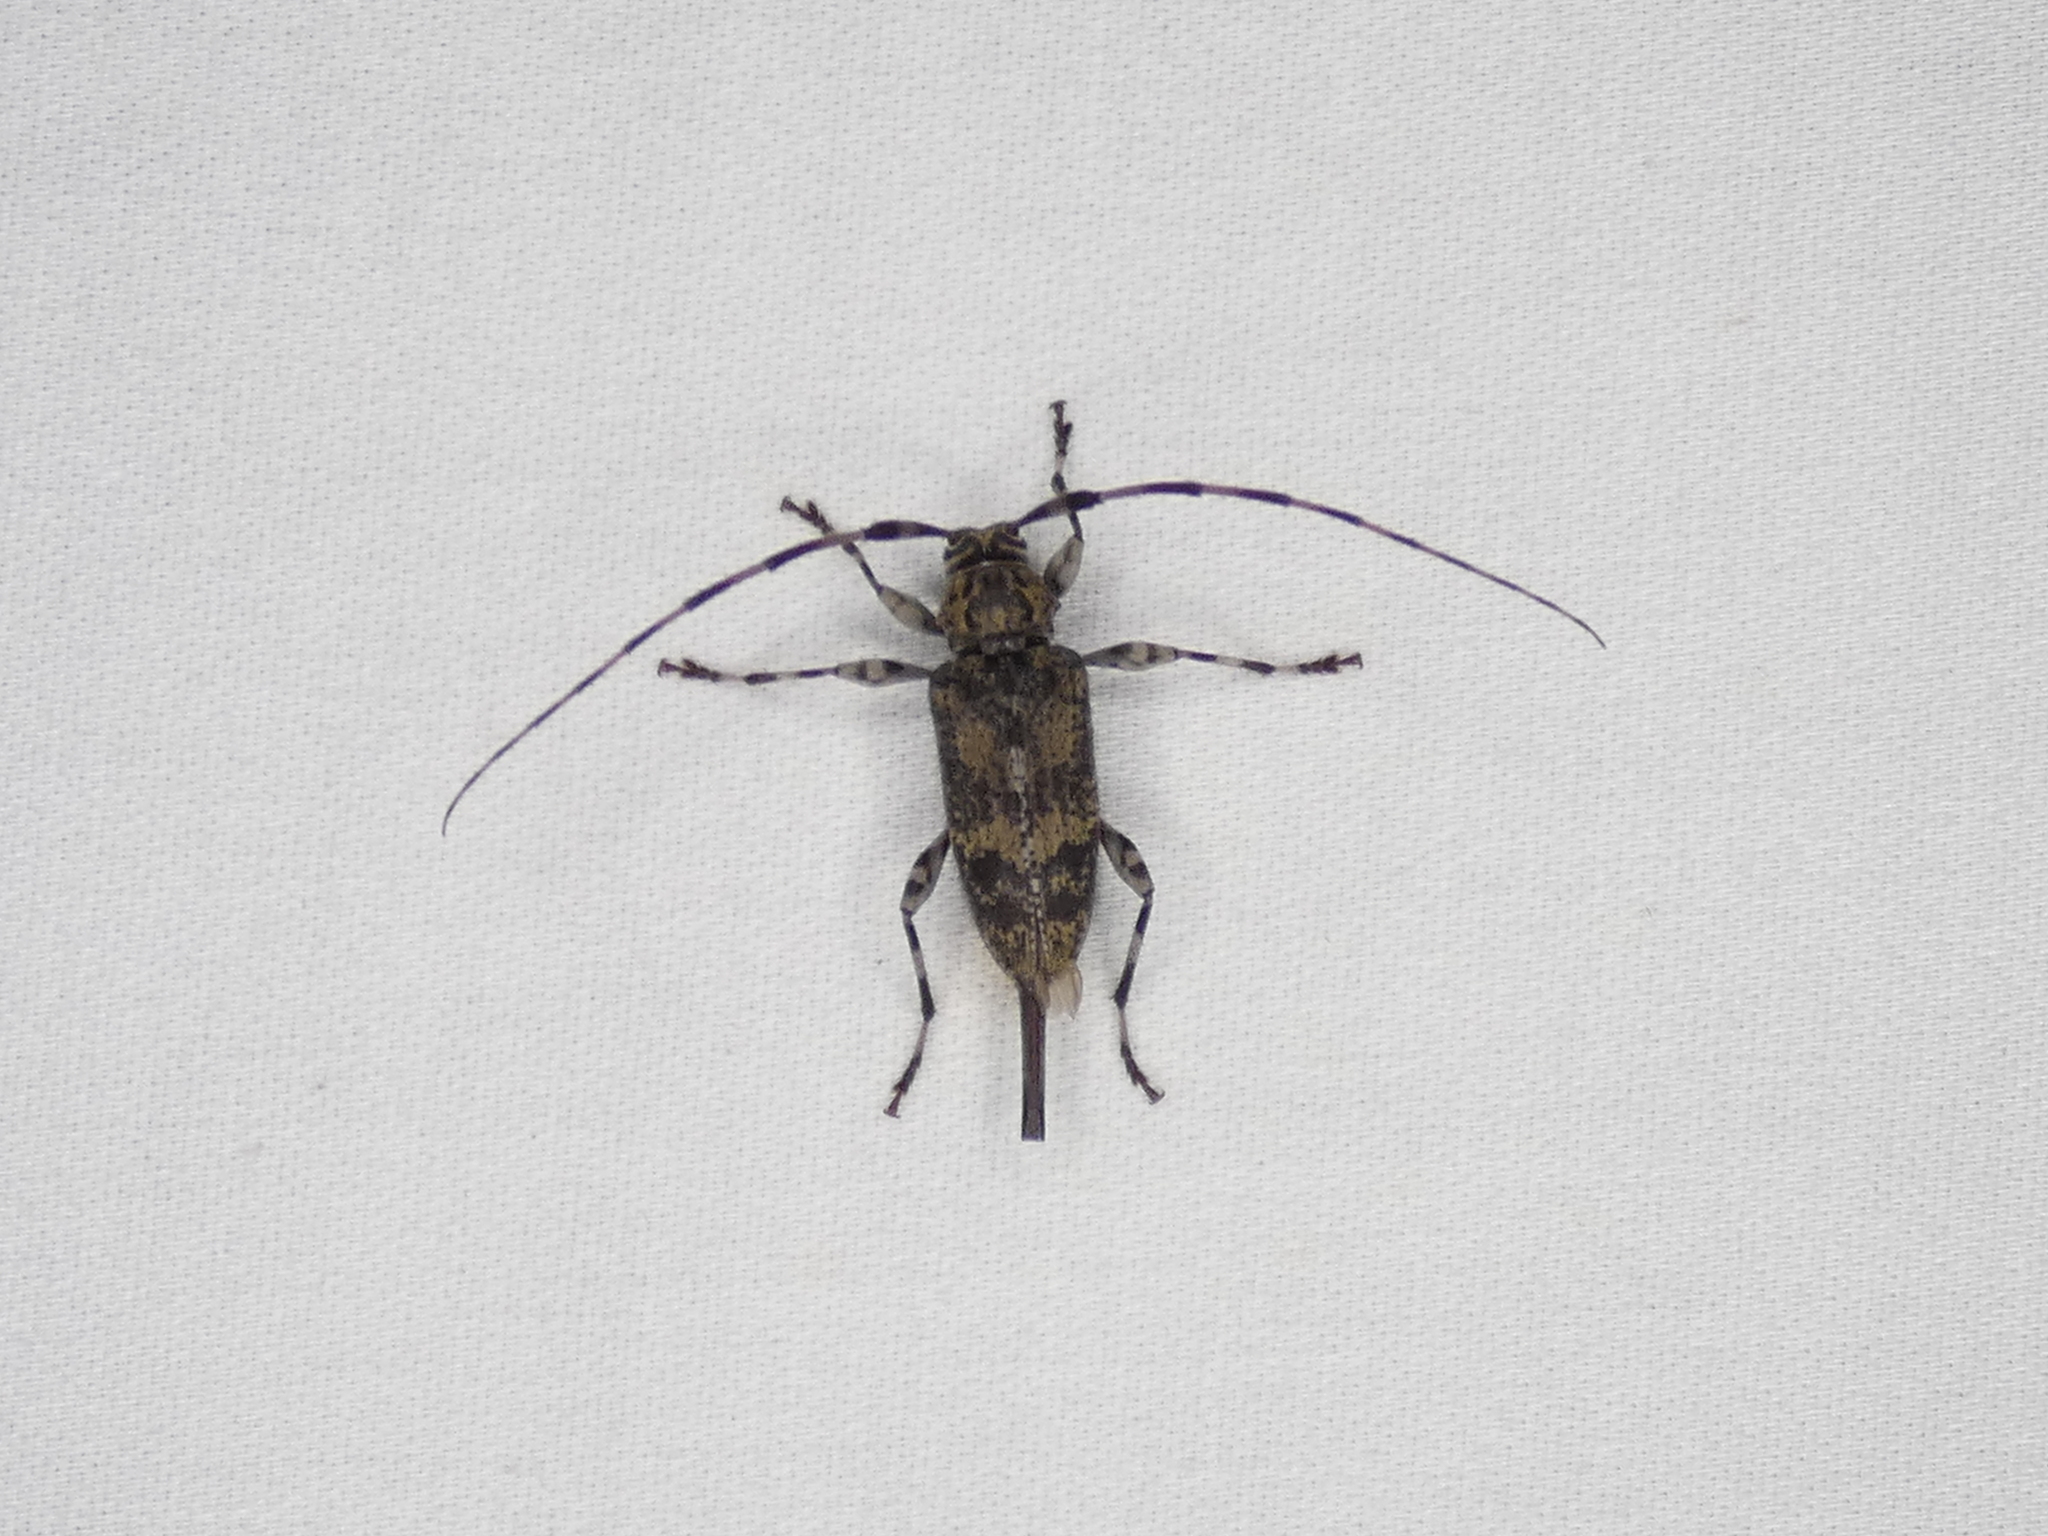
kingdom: Animalia
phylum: Arthropoda
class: Insecta
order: Coleoptera
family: Cerambycidae
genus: Graphisurus
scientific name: Graphisurus fasciatus
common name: Banded graphisurus
